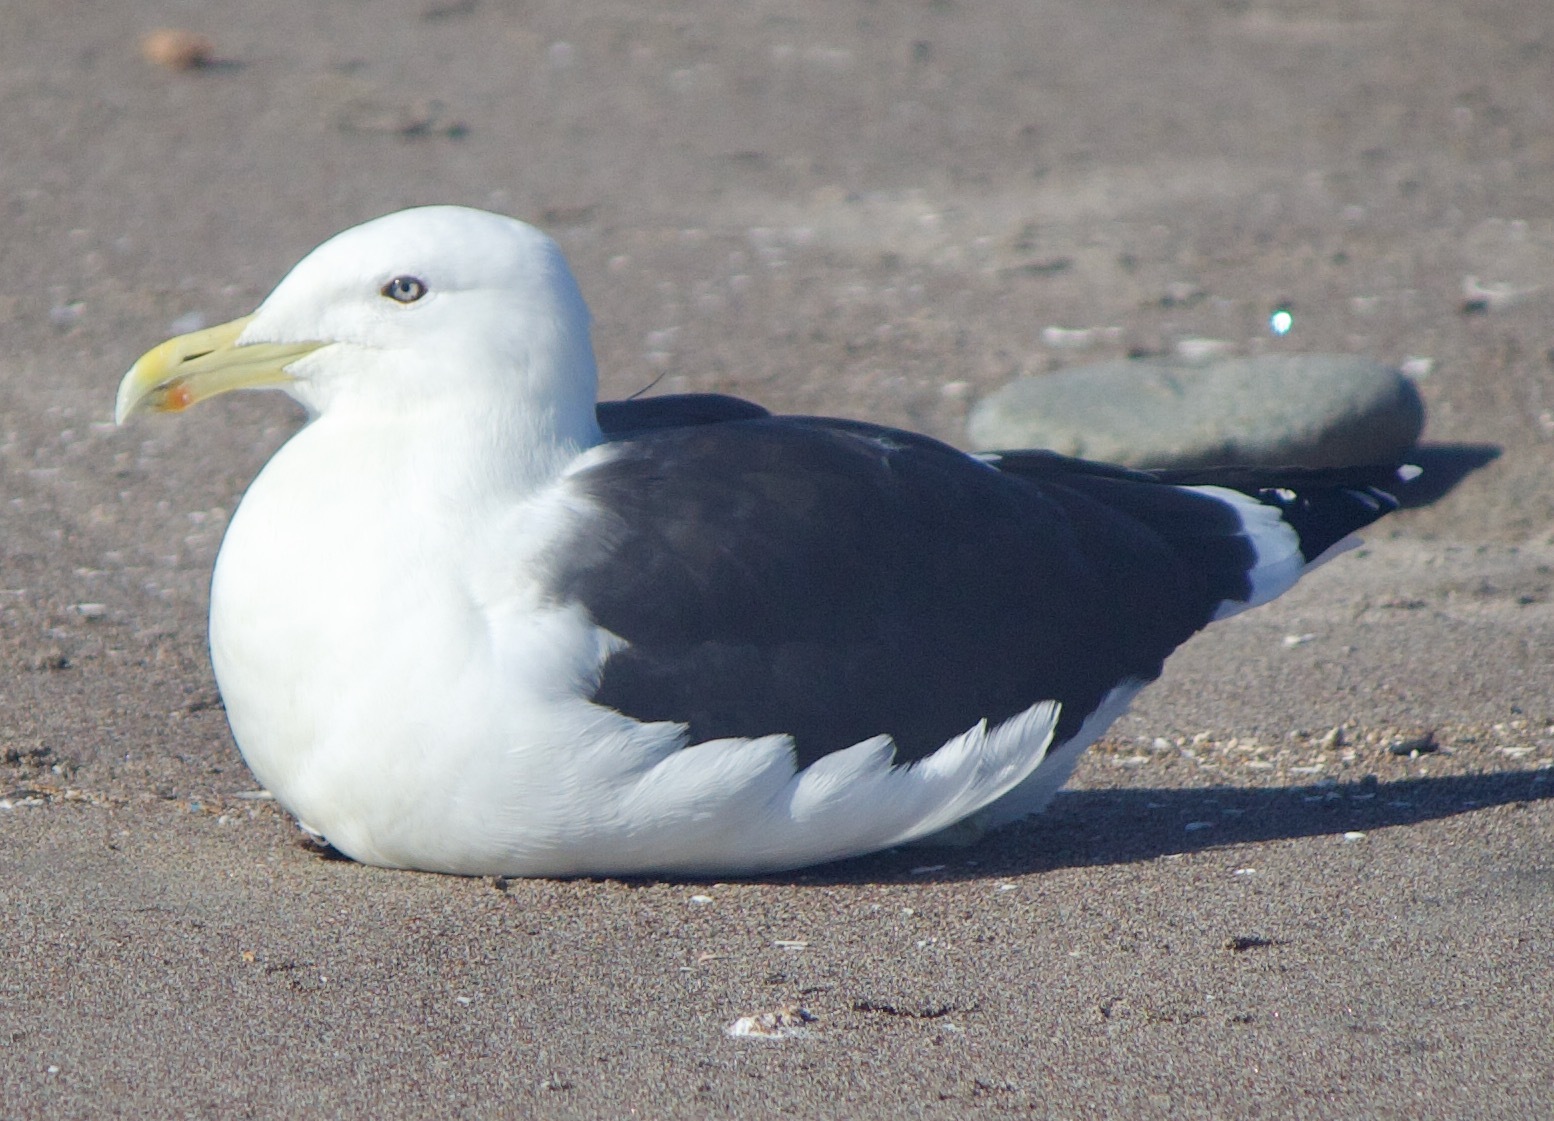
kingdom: Animalia
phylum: Chordata
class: Aves
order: Charadriiformes
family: Laridae
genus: Larus
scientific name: Larus dominicanus
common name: Kelp gull
